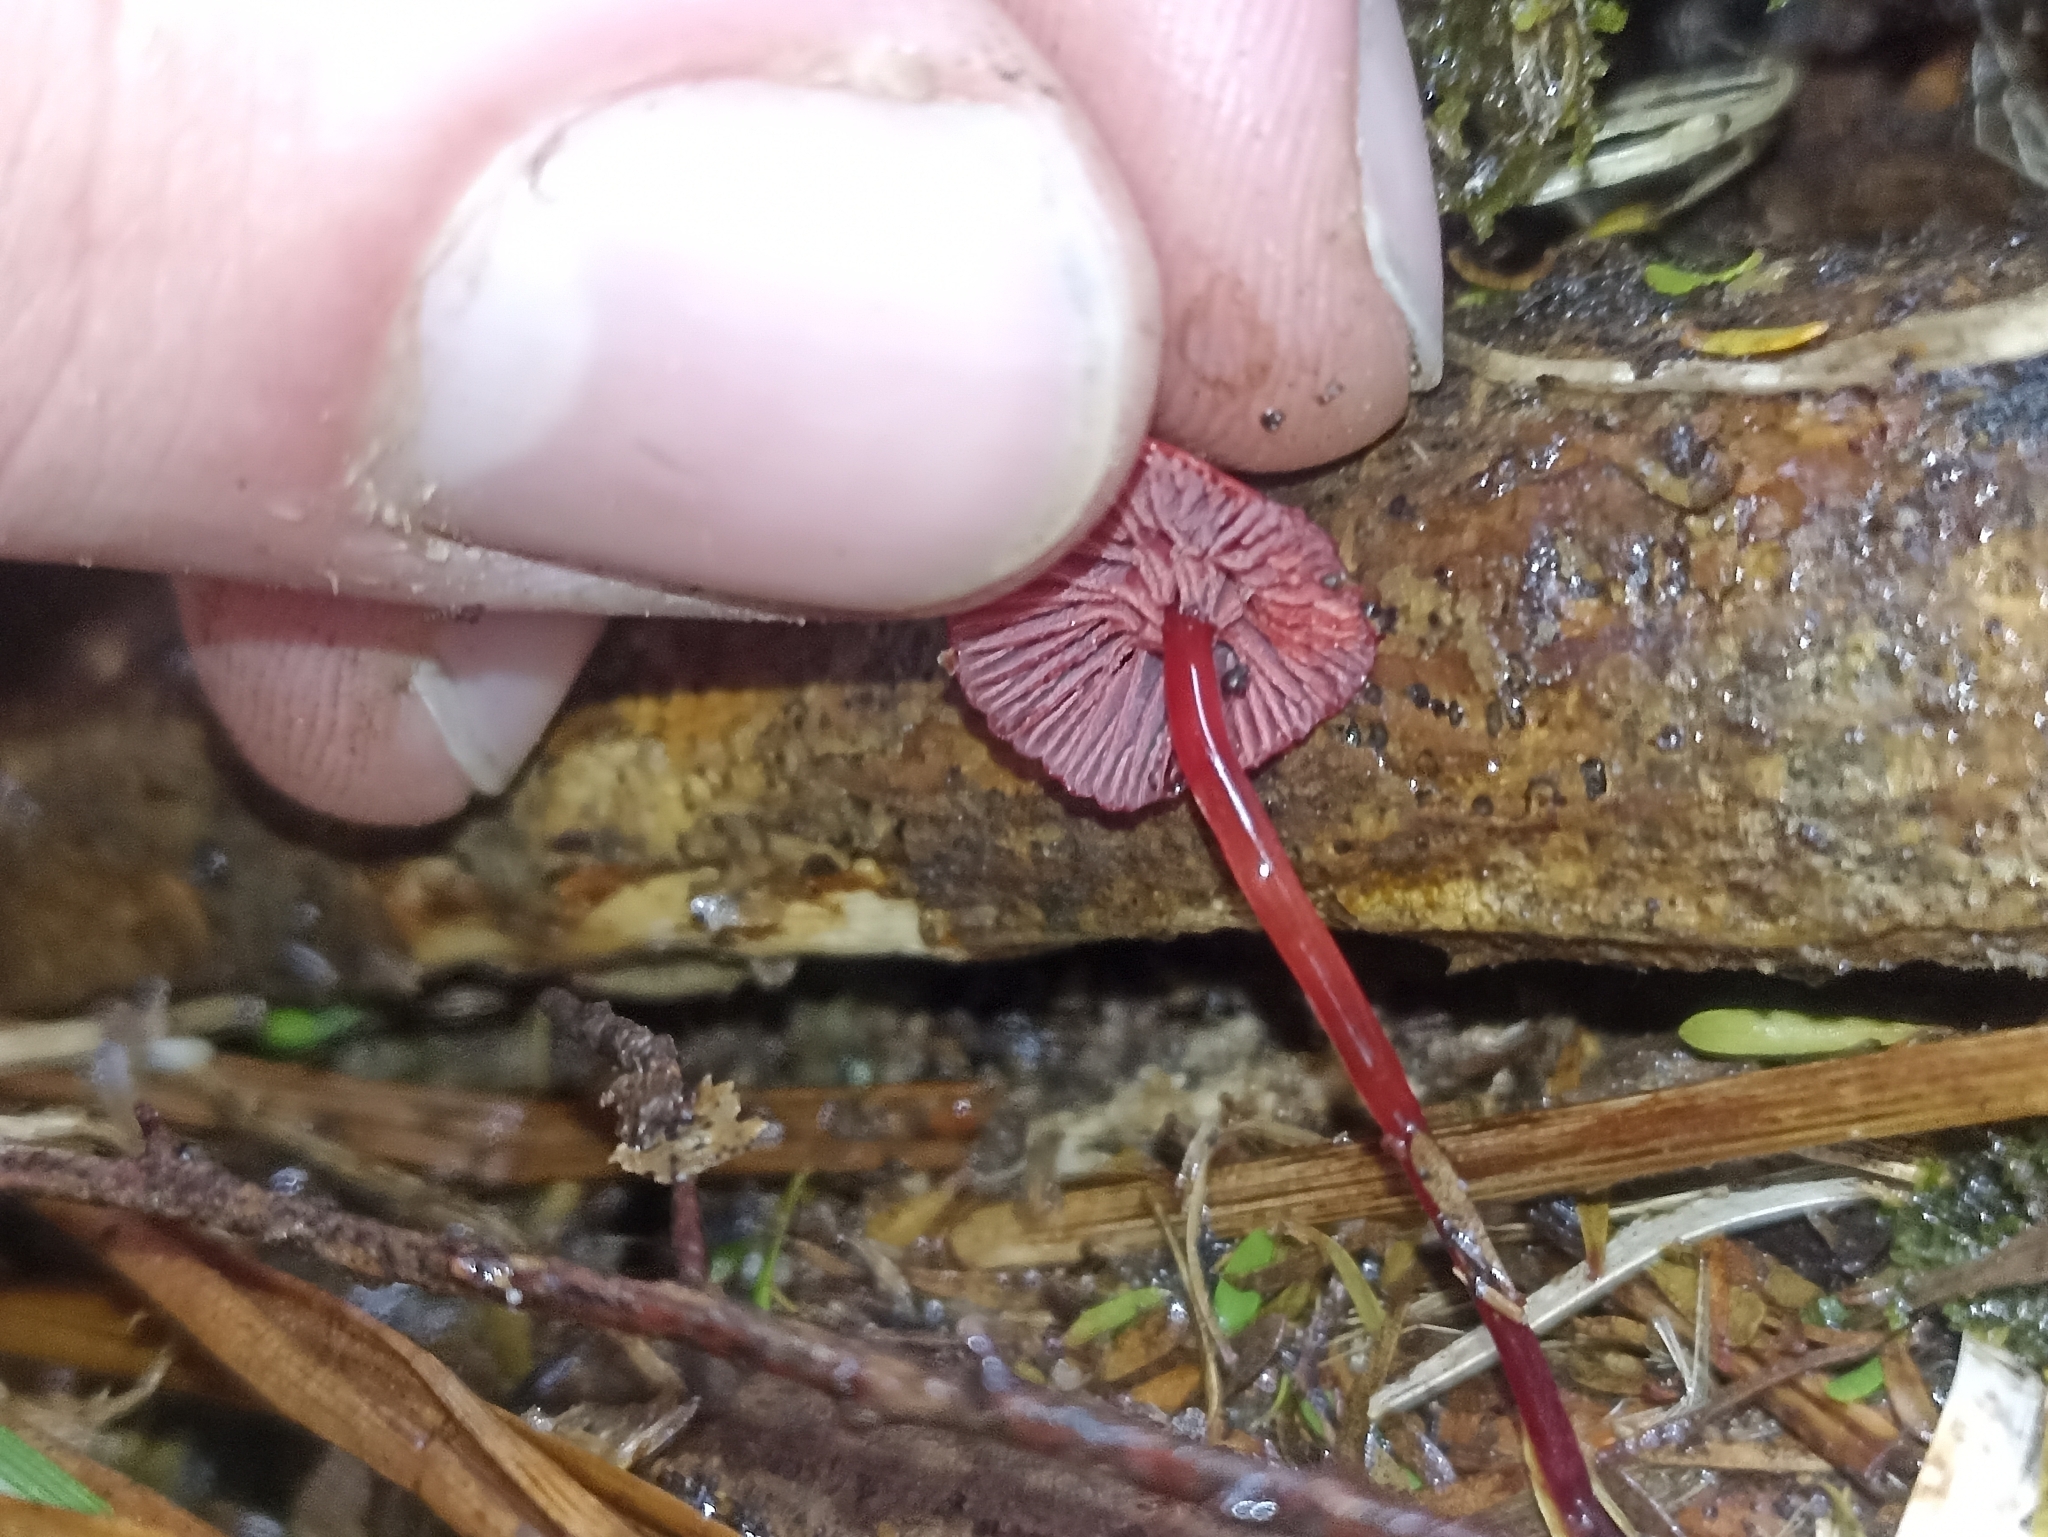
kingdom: Fungi
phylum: Basidiomycota
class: Agaricomycetes
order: Agaricales
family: Mycenaceae
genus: Cruentomycena
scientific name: Cruentomycena viscidocruenta
